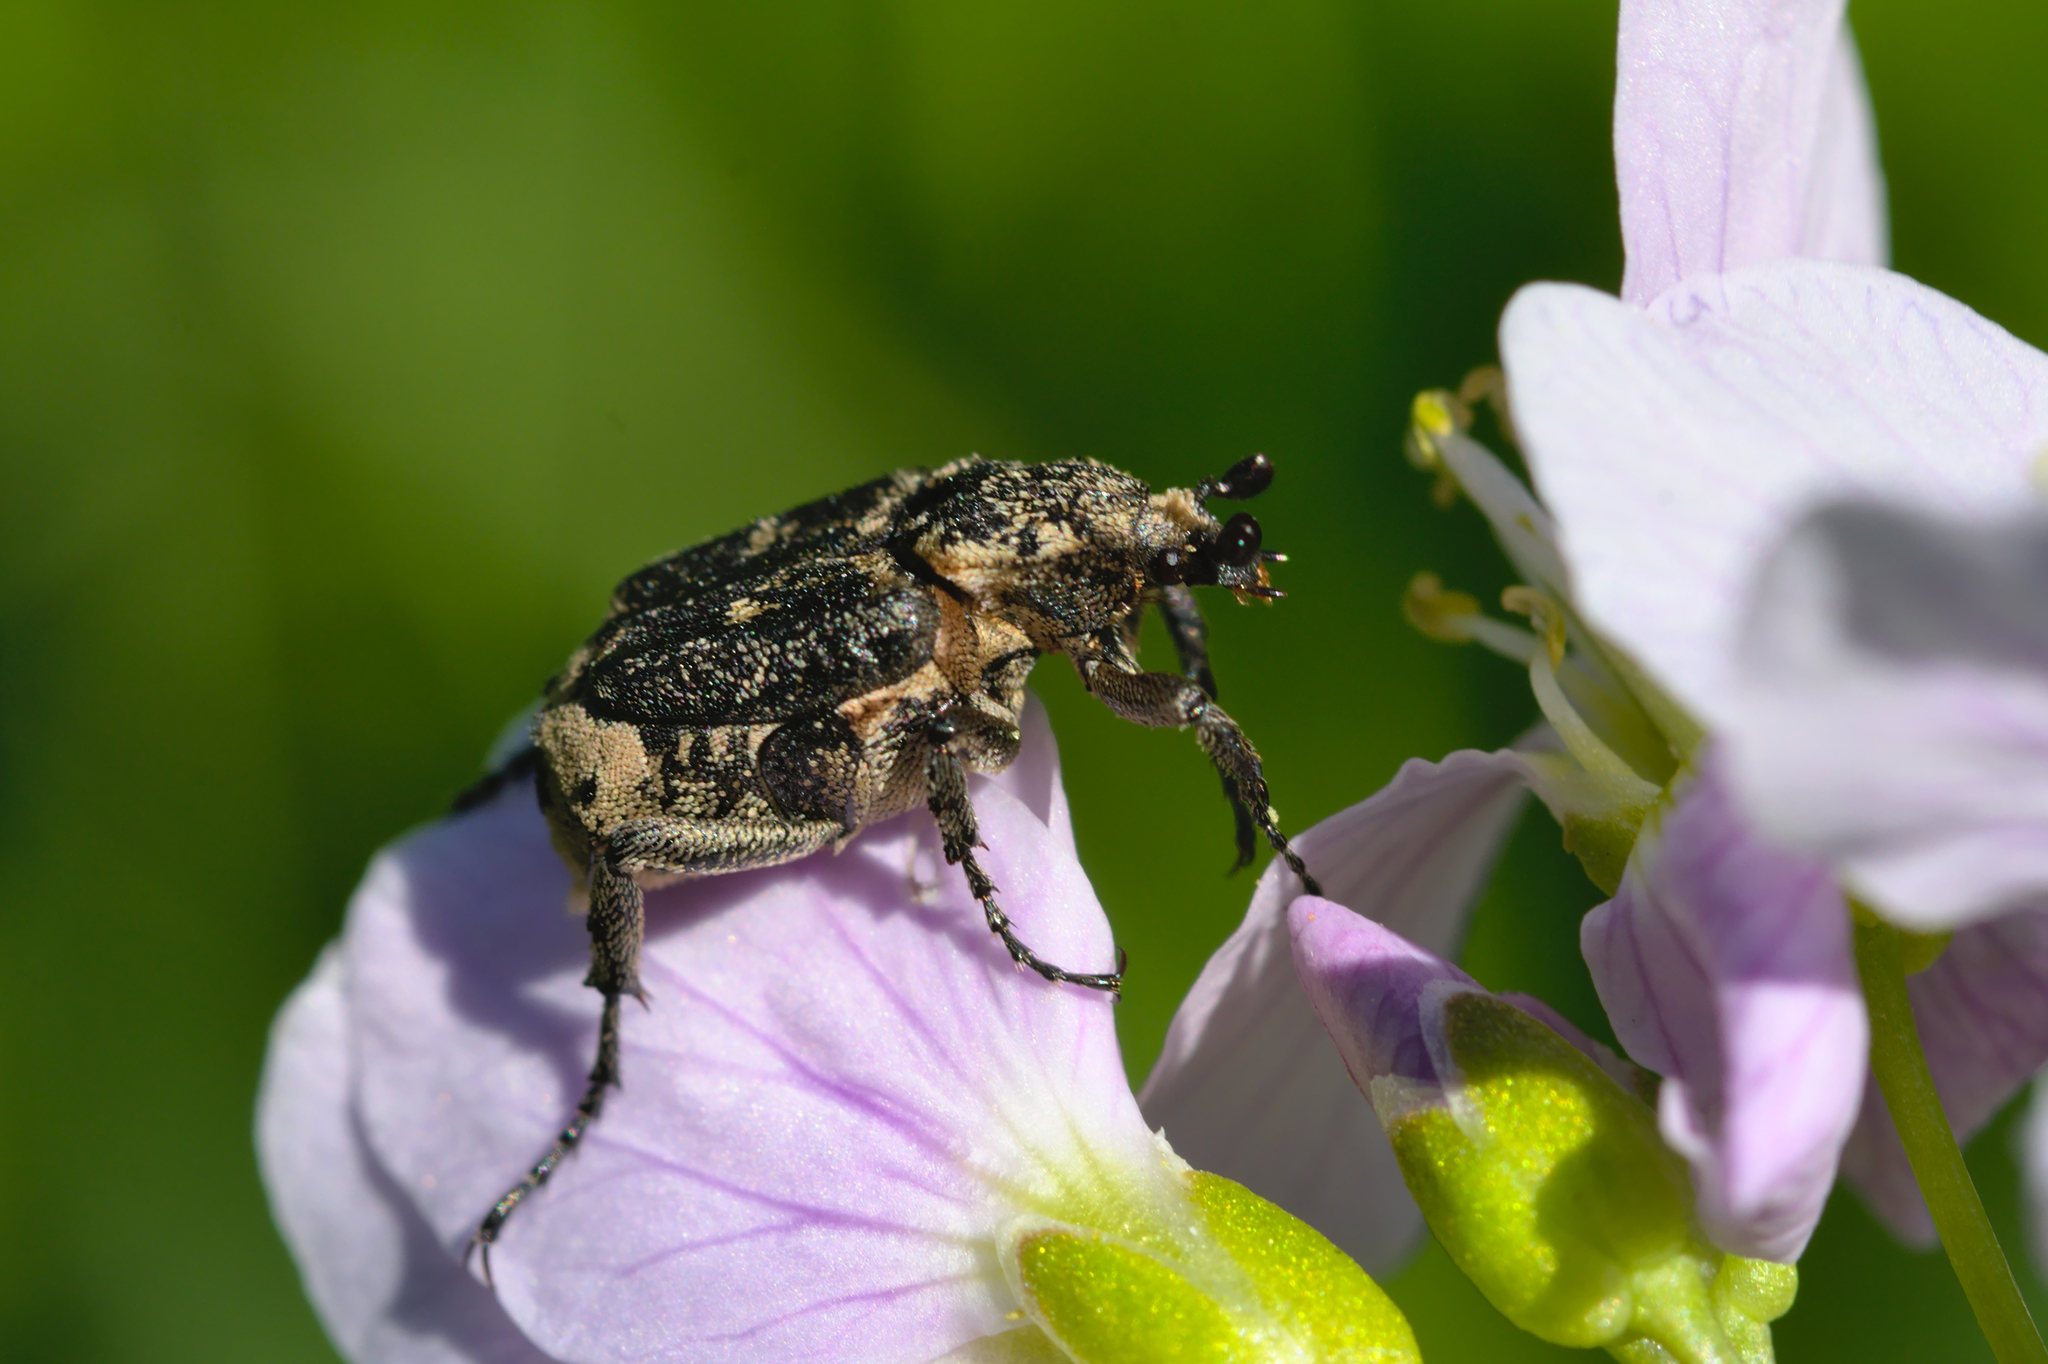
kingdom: Animalia
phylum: Arthropoda
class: Insecta
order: Coleoptera
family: Scarabaeidae
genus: Valgus
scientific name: Valgus hemipterus
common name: Bug flower chafer
